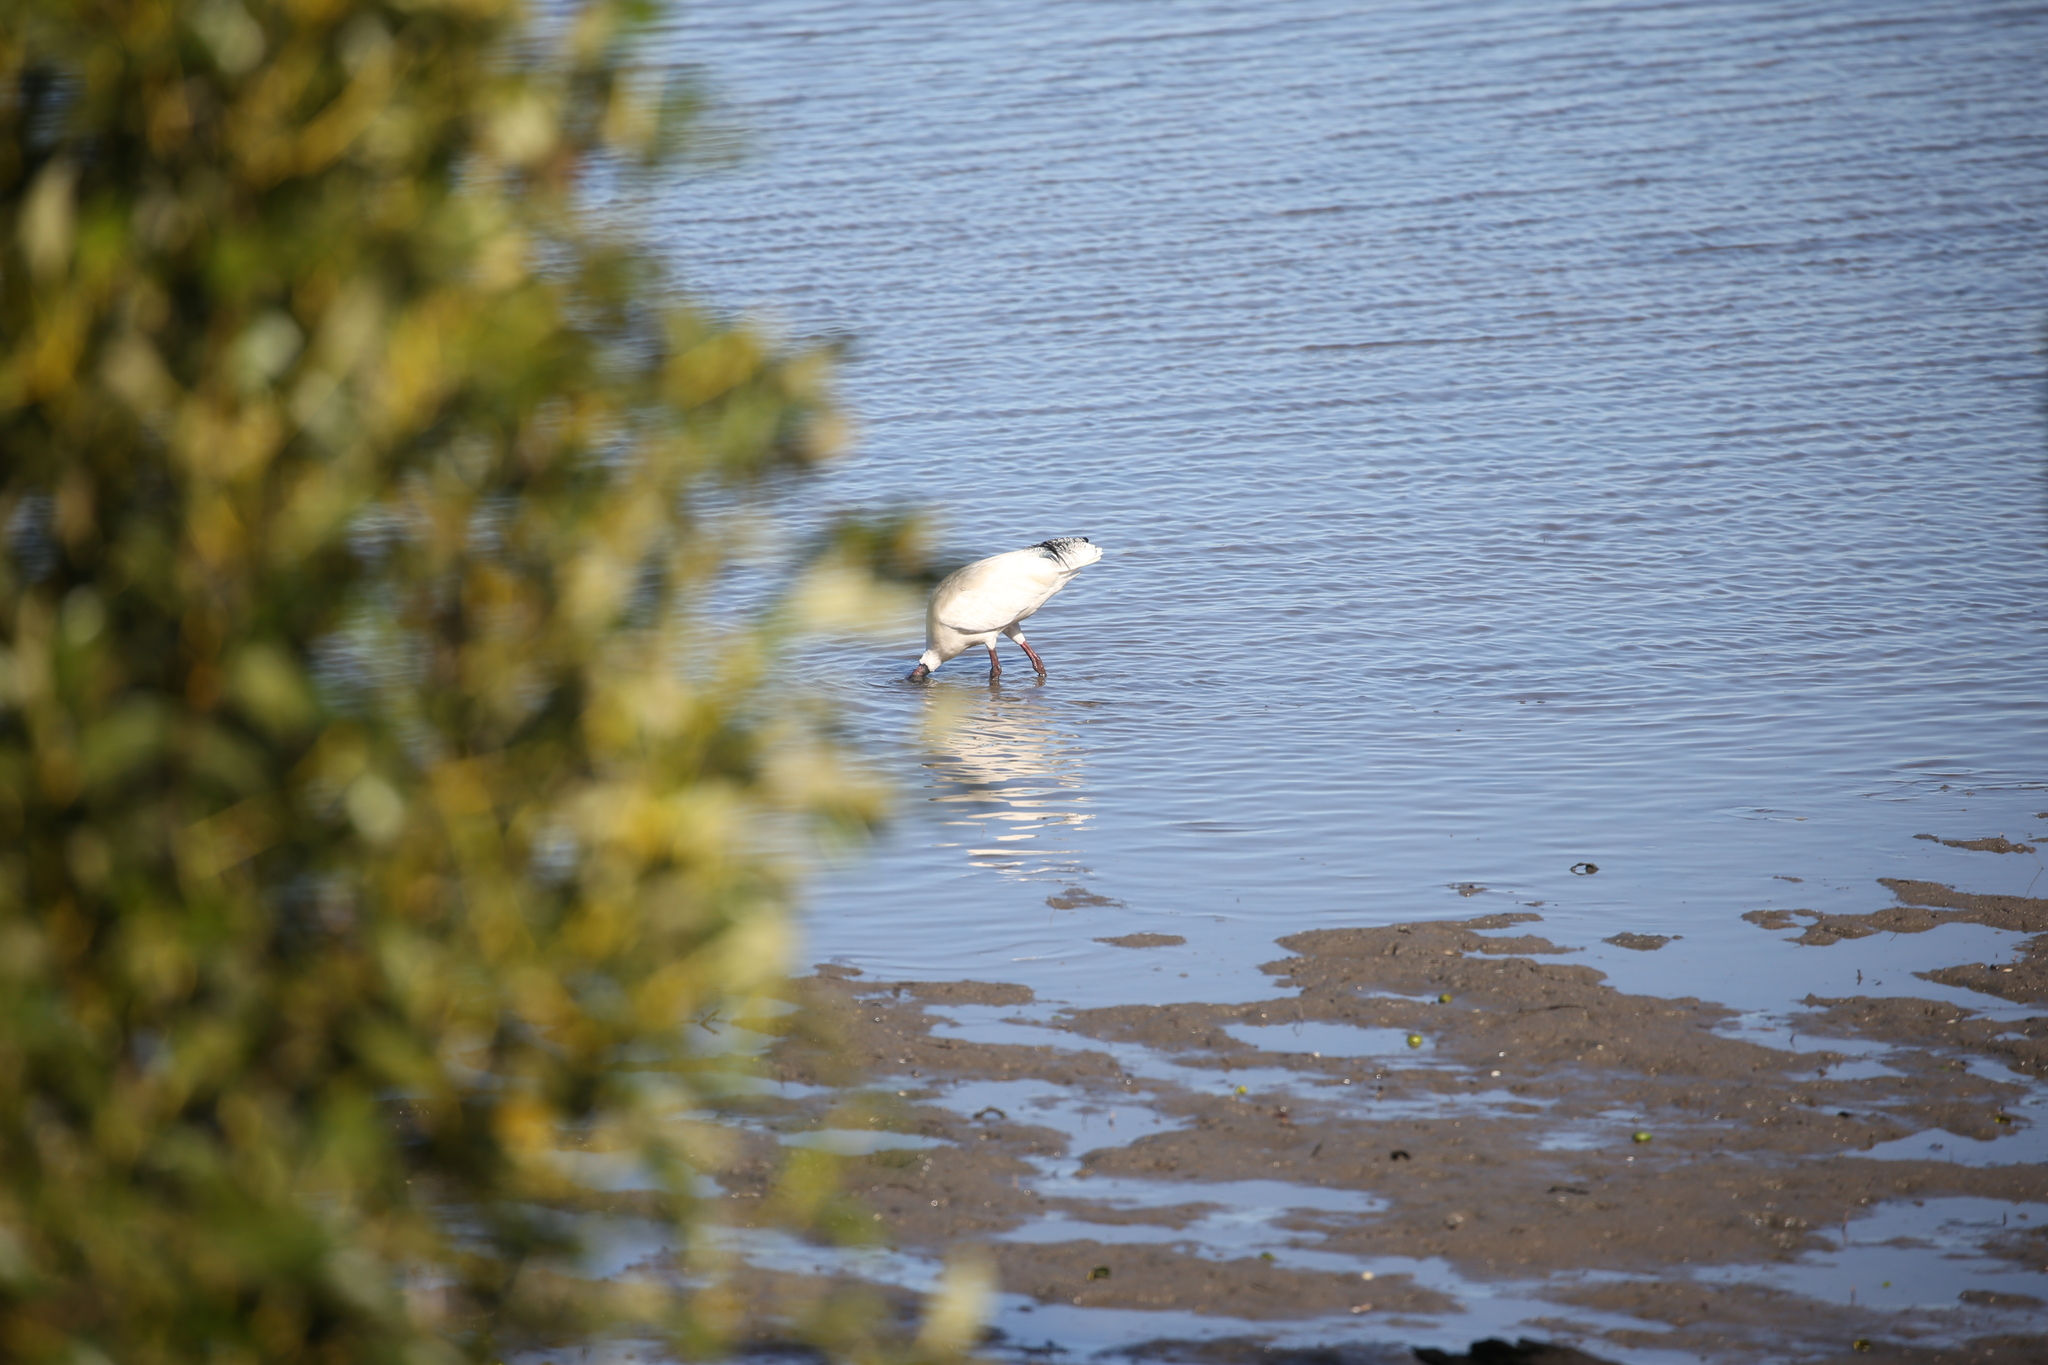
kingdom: Animalia
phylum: Chordata
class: Aves
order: Pelecaniformes
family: Threskiornithidae
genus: Threskiornis
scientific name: Threskiornis molucca
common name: Australian white ibis
